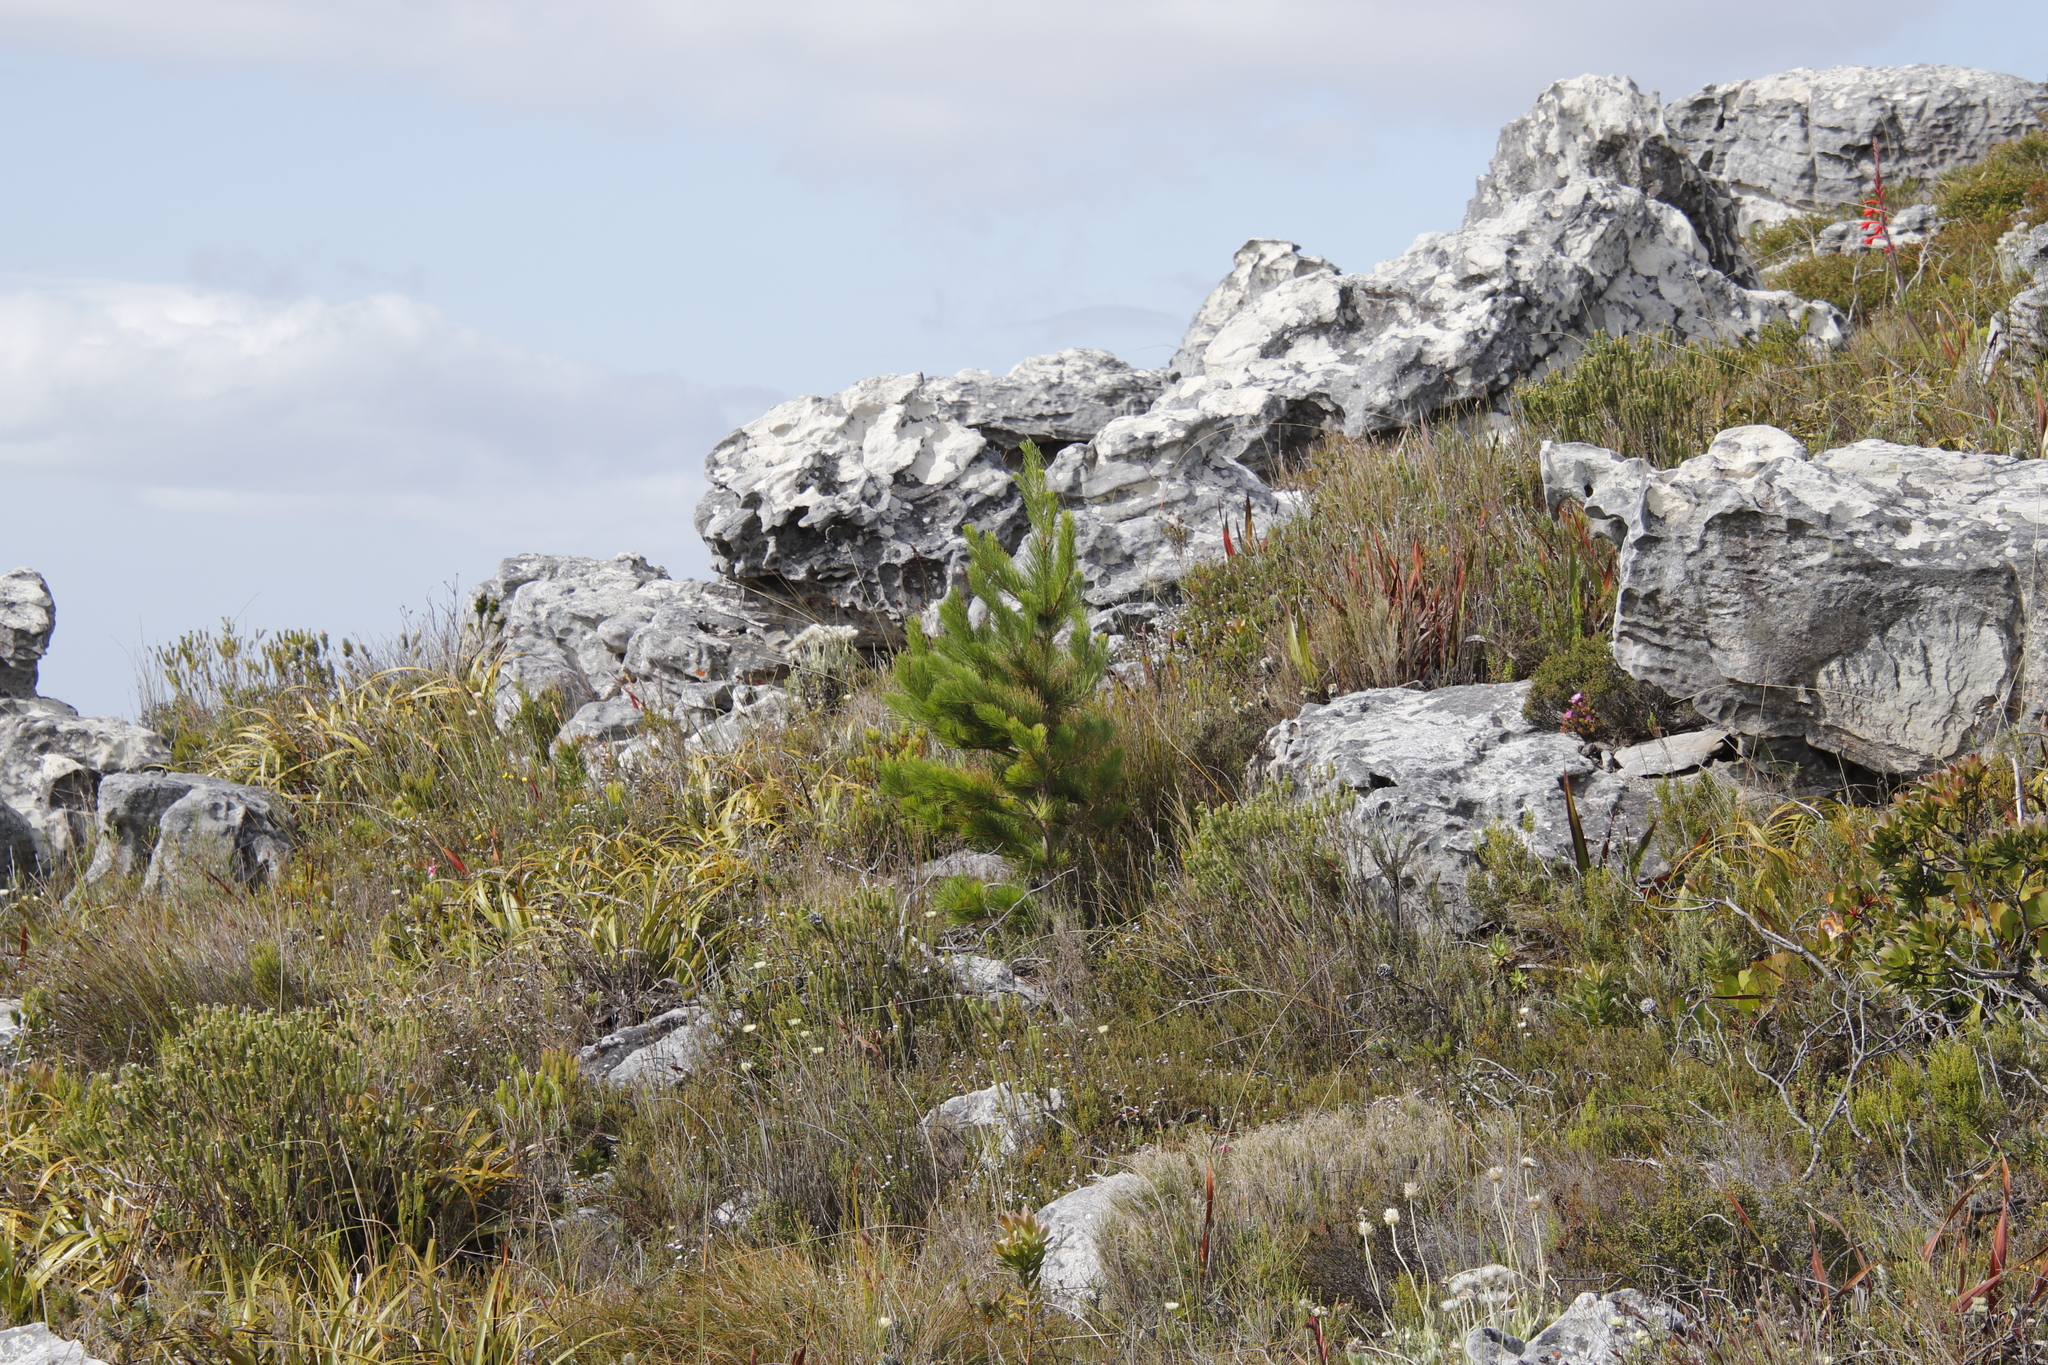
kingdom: Plantae
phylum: Tracheophyta
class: Pinopsida
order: Pinales
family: Pinaceae
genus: Pinus
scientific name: Pinus radiata
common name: Monterey pine
